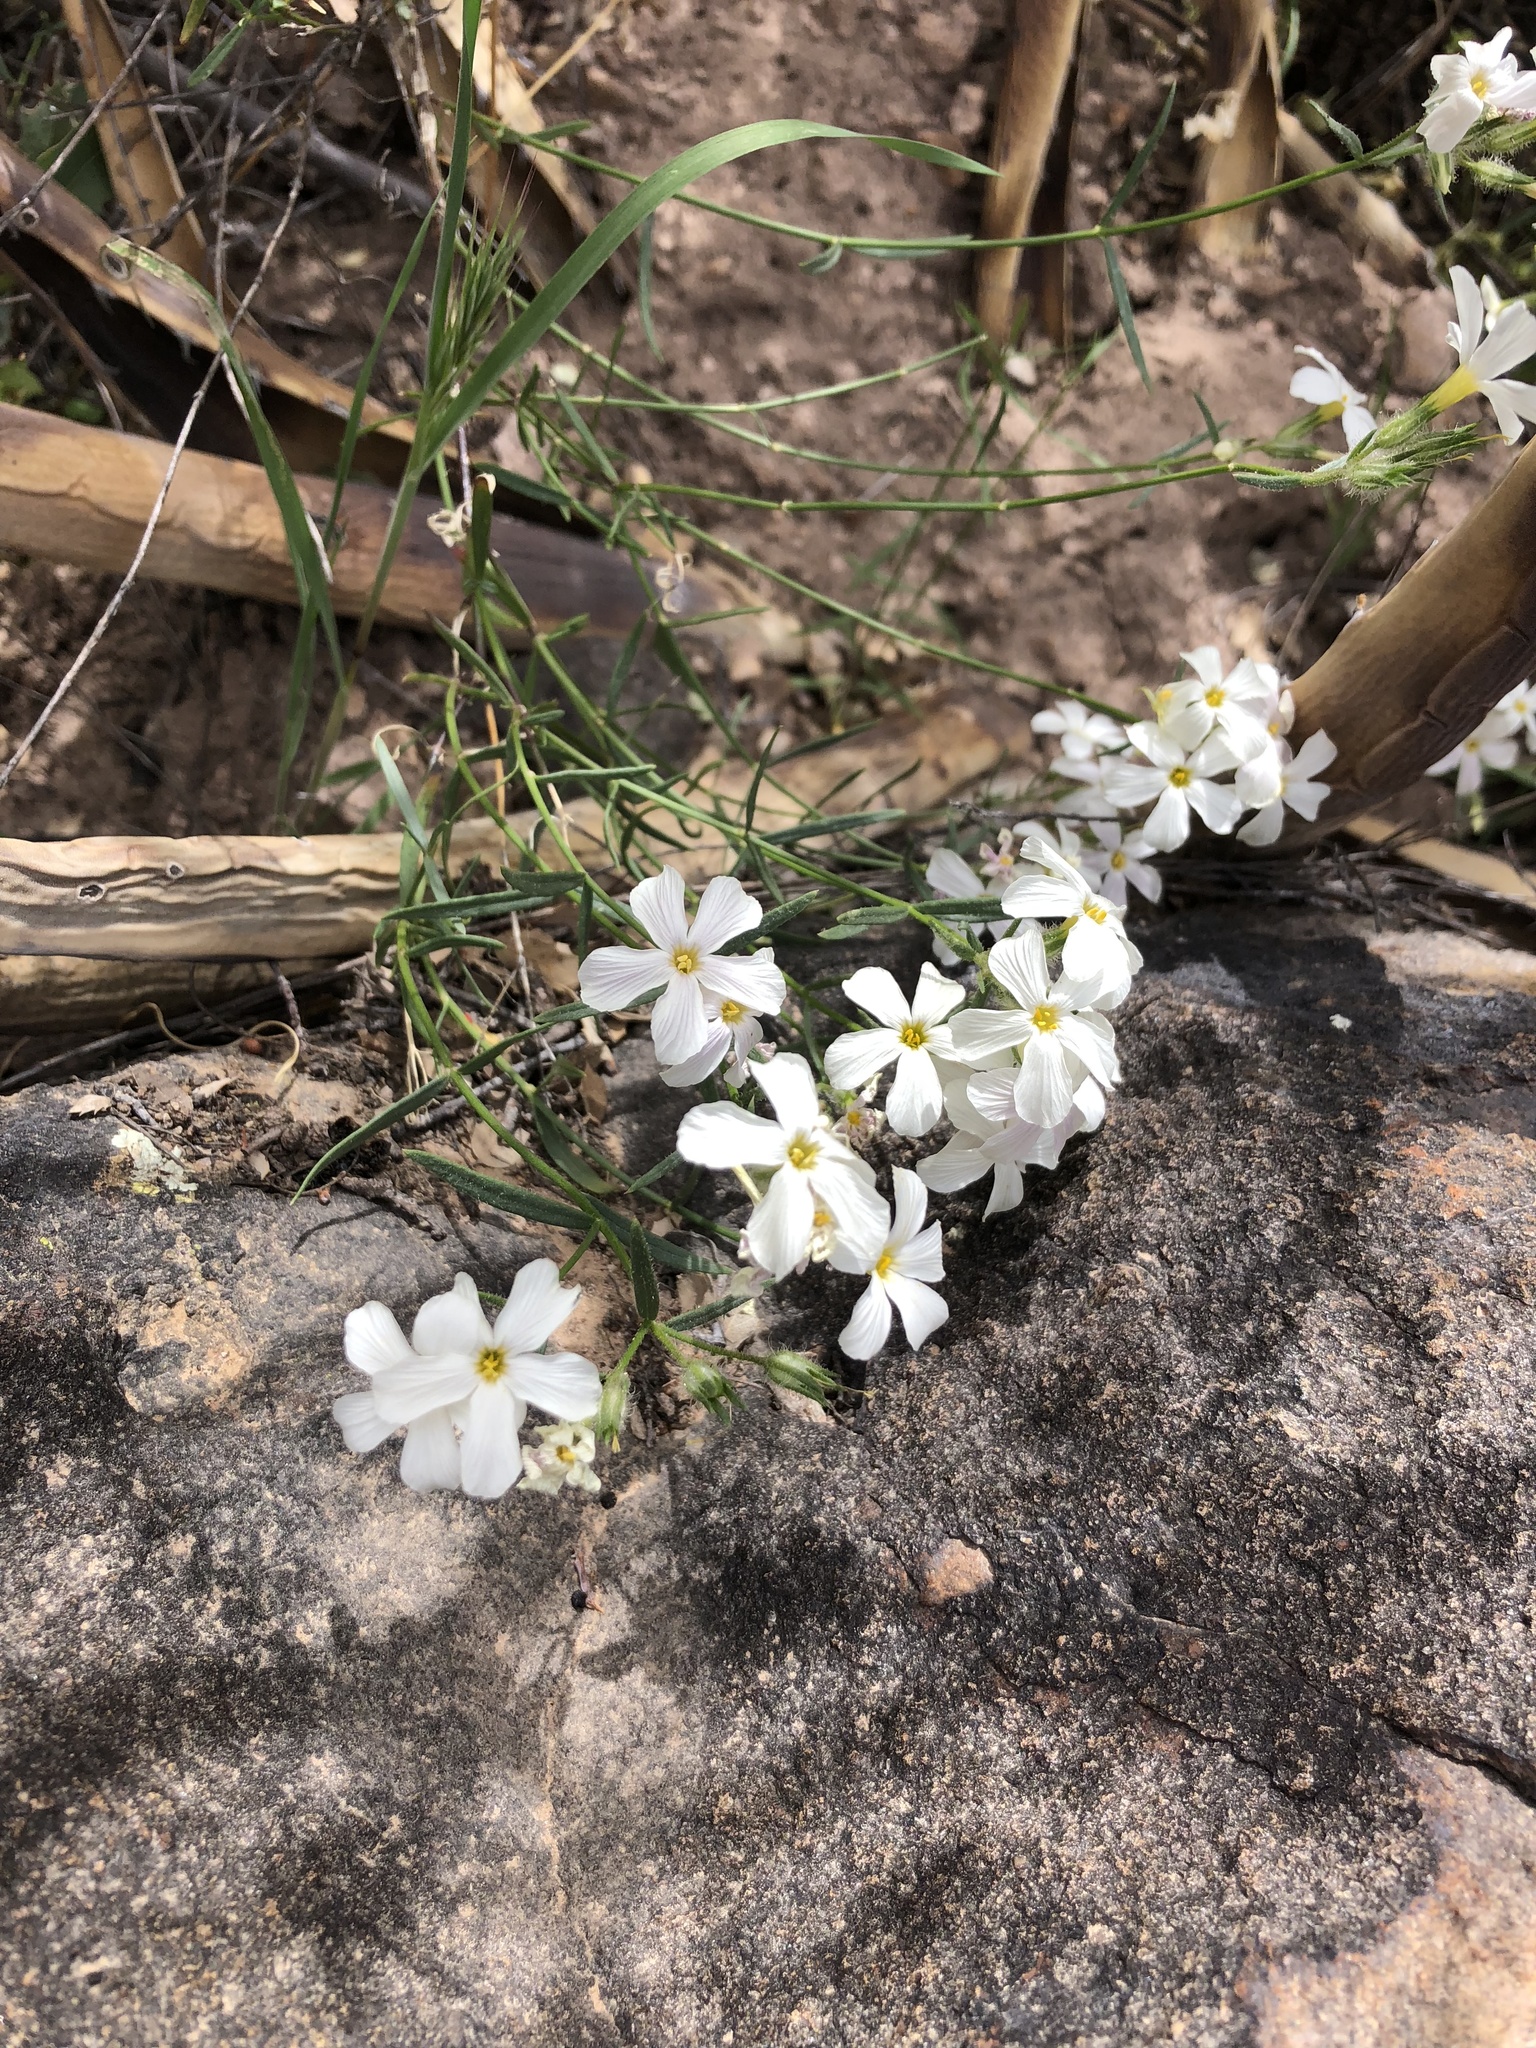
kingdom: Plantae
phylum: Tracheophyta
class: Magnoliopsida
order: Ericales
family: Polemoniaceae
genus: Phlox
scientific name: Phlox tenuifolia
